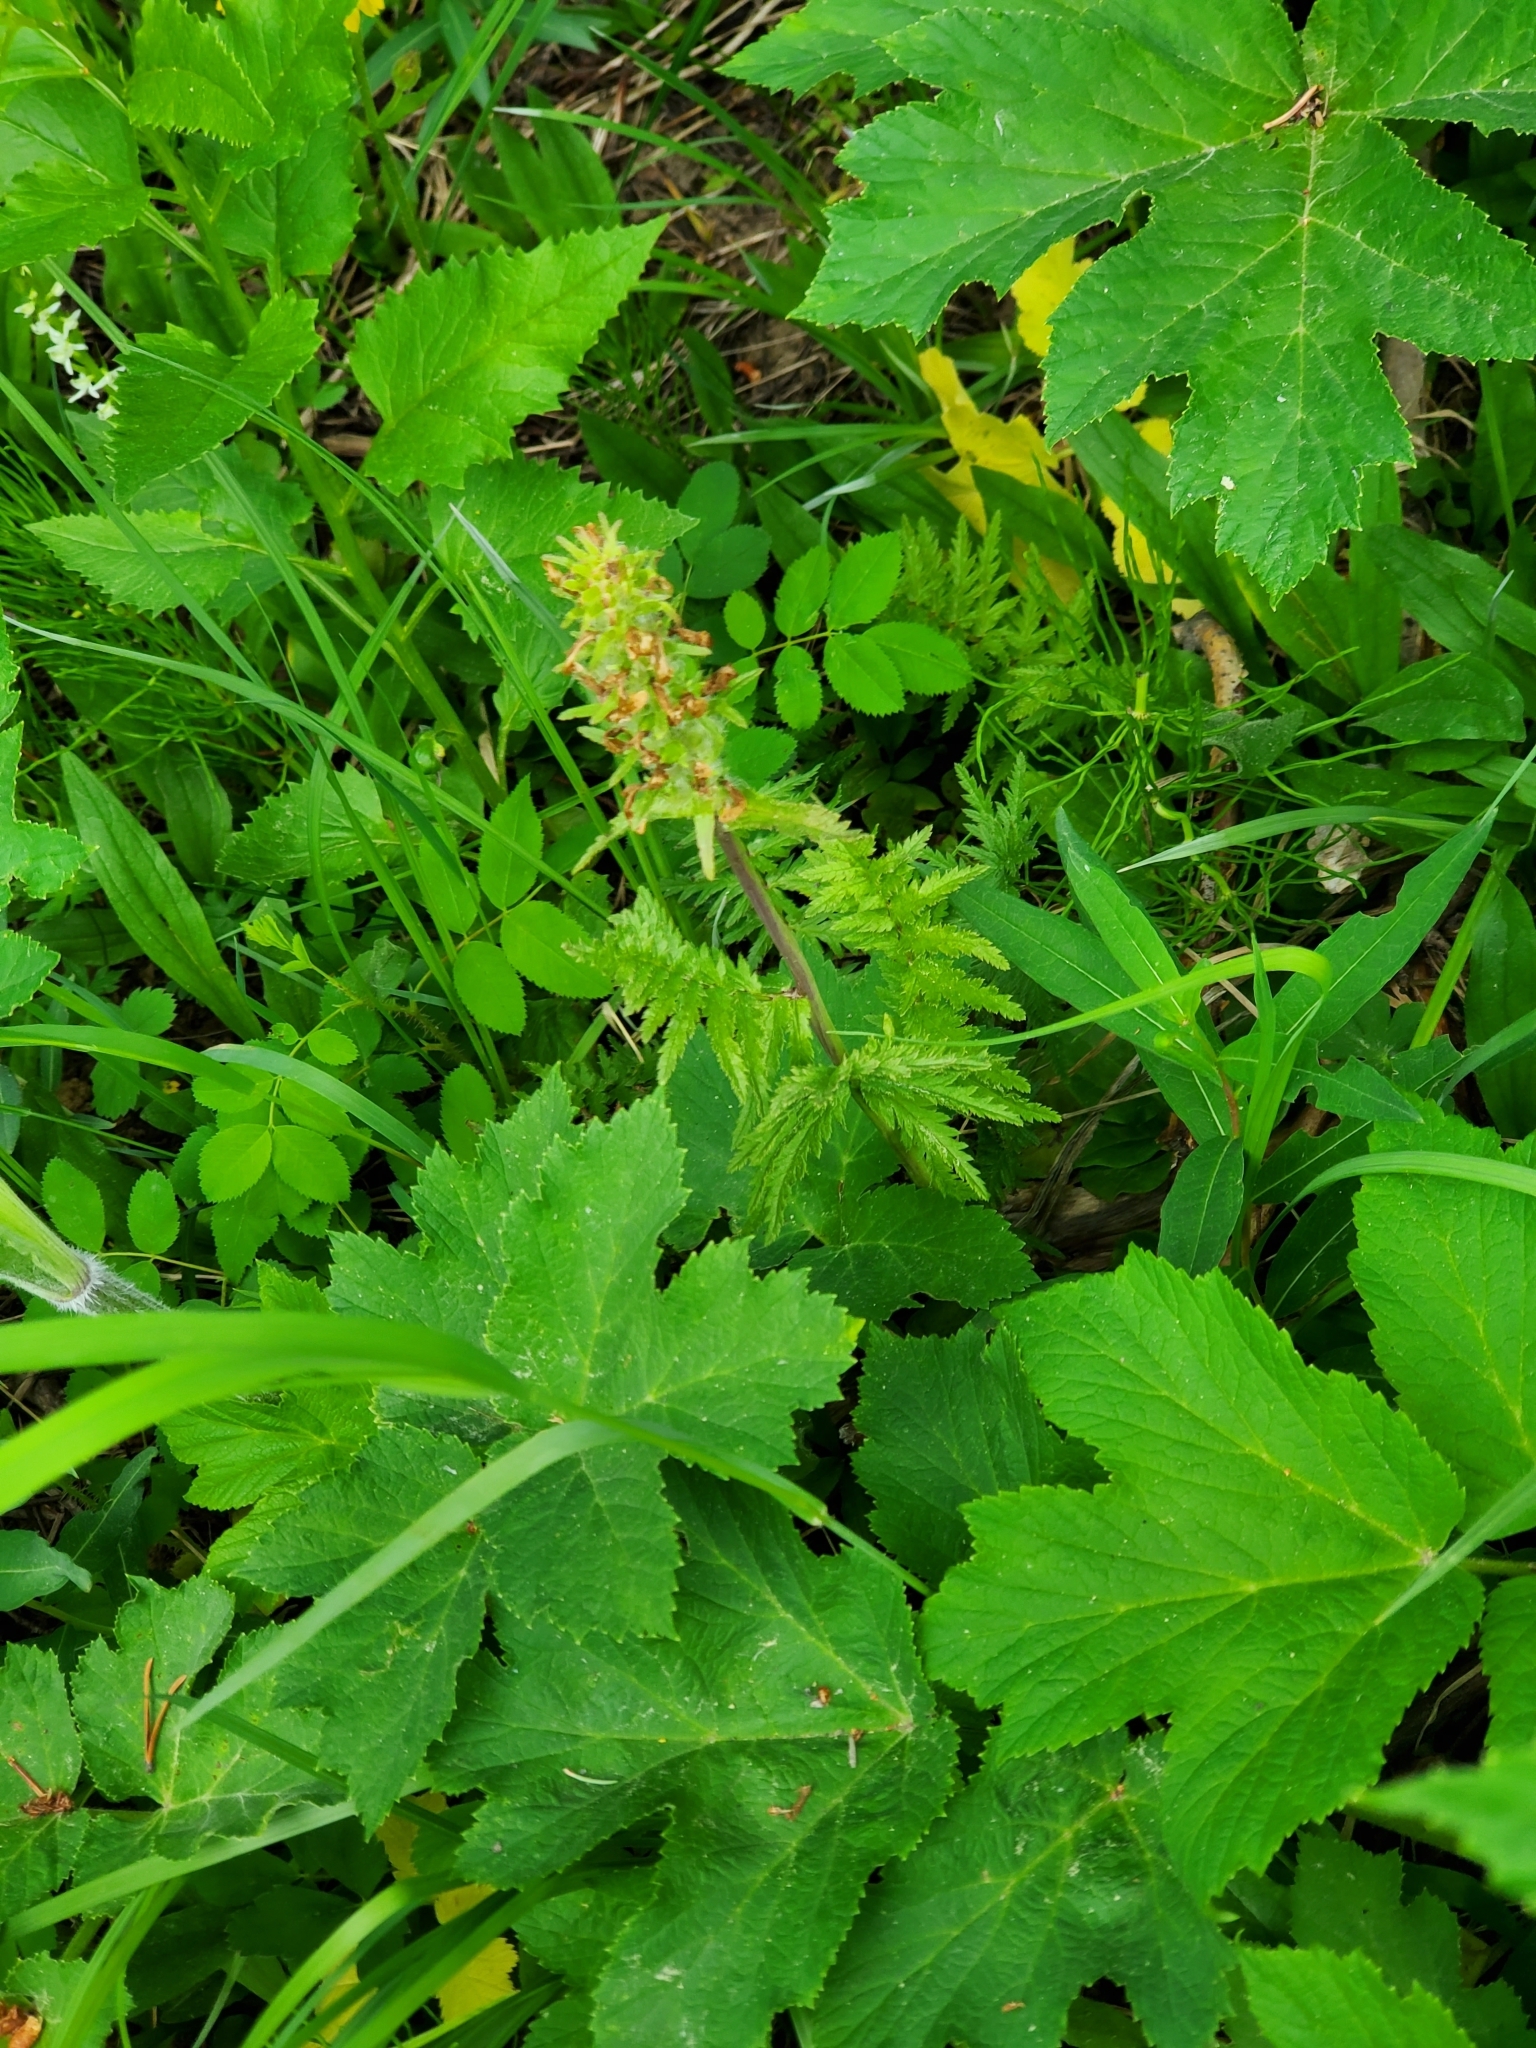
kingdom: Plantae
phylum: Tracheophyta
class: Magnoliopsida
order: Lamiales
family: Orobanchaceae
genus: Pedicularis
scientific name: Pedicularis bracteosa
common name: Bracted lousewort
